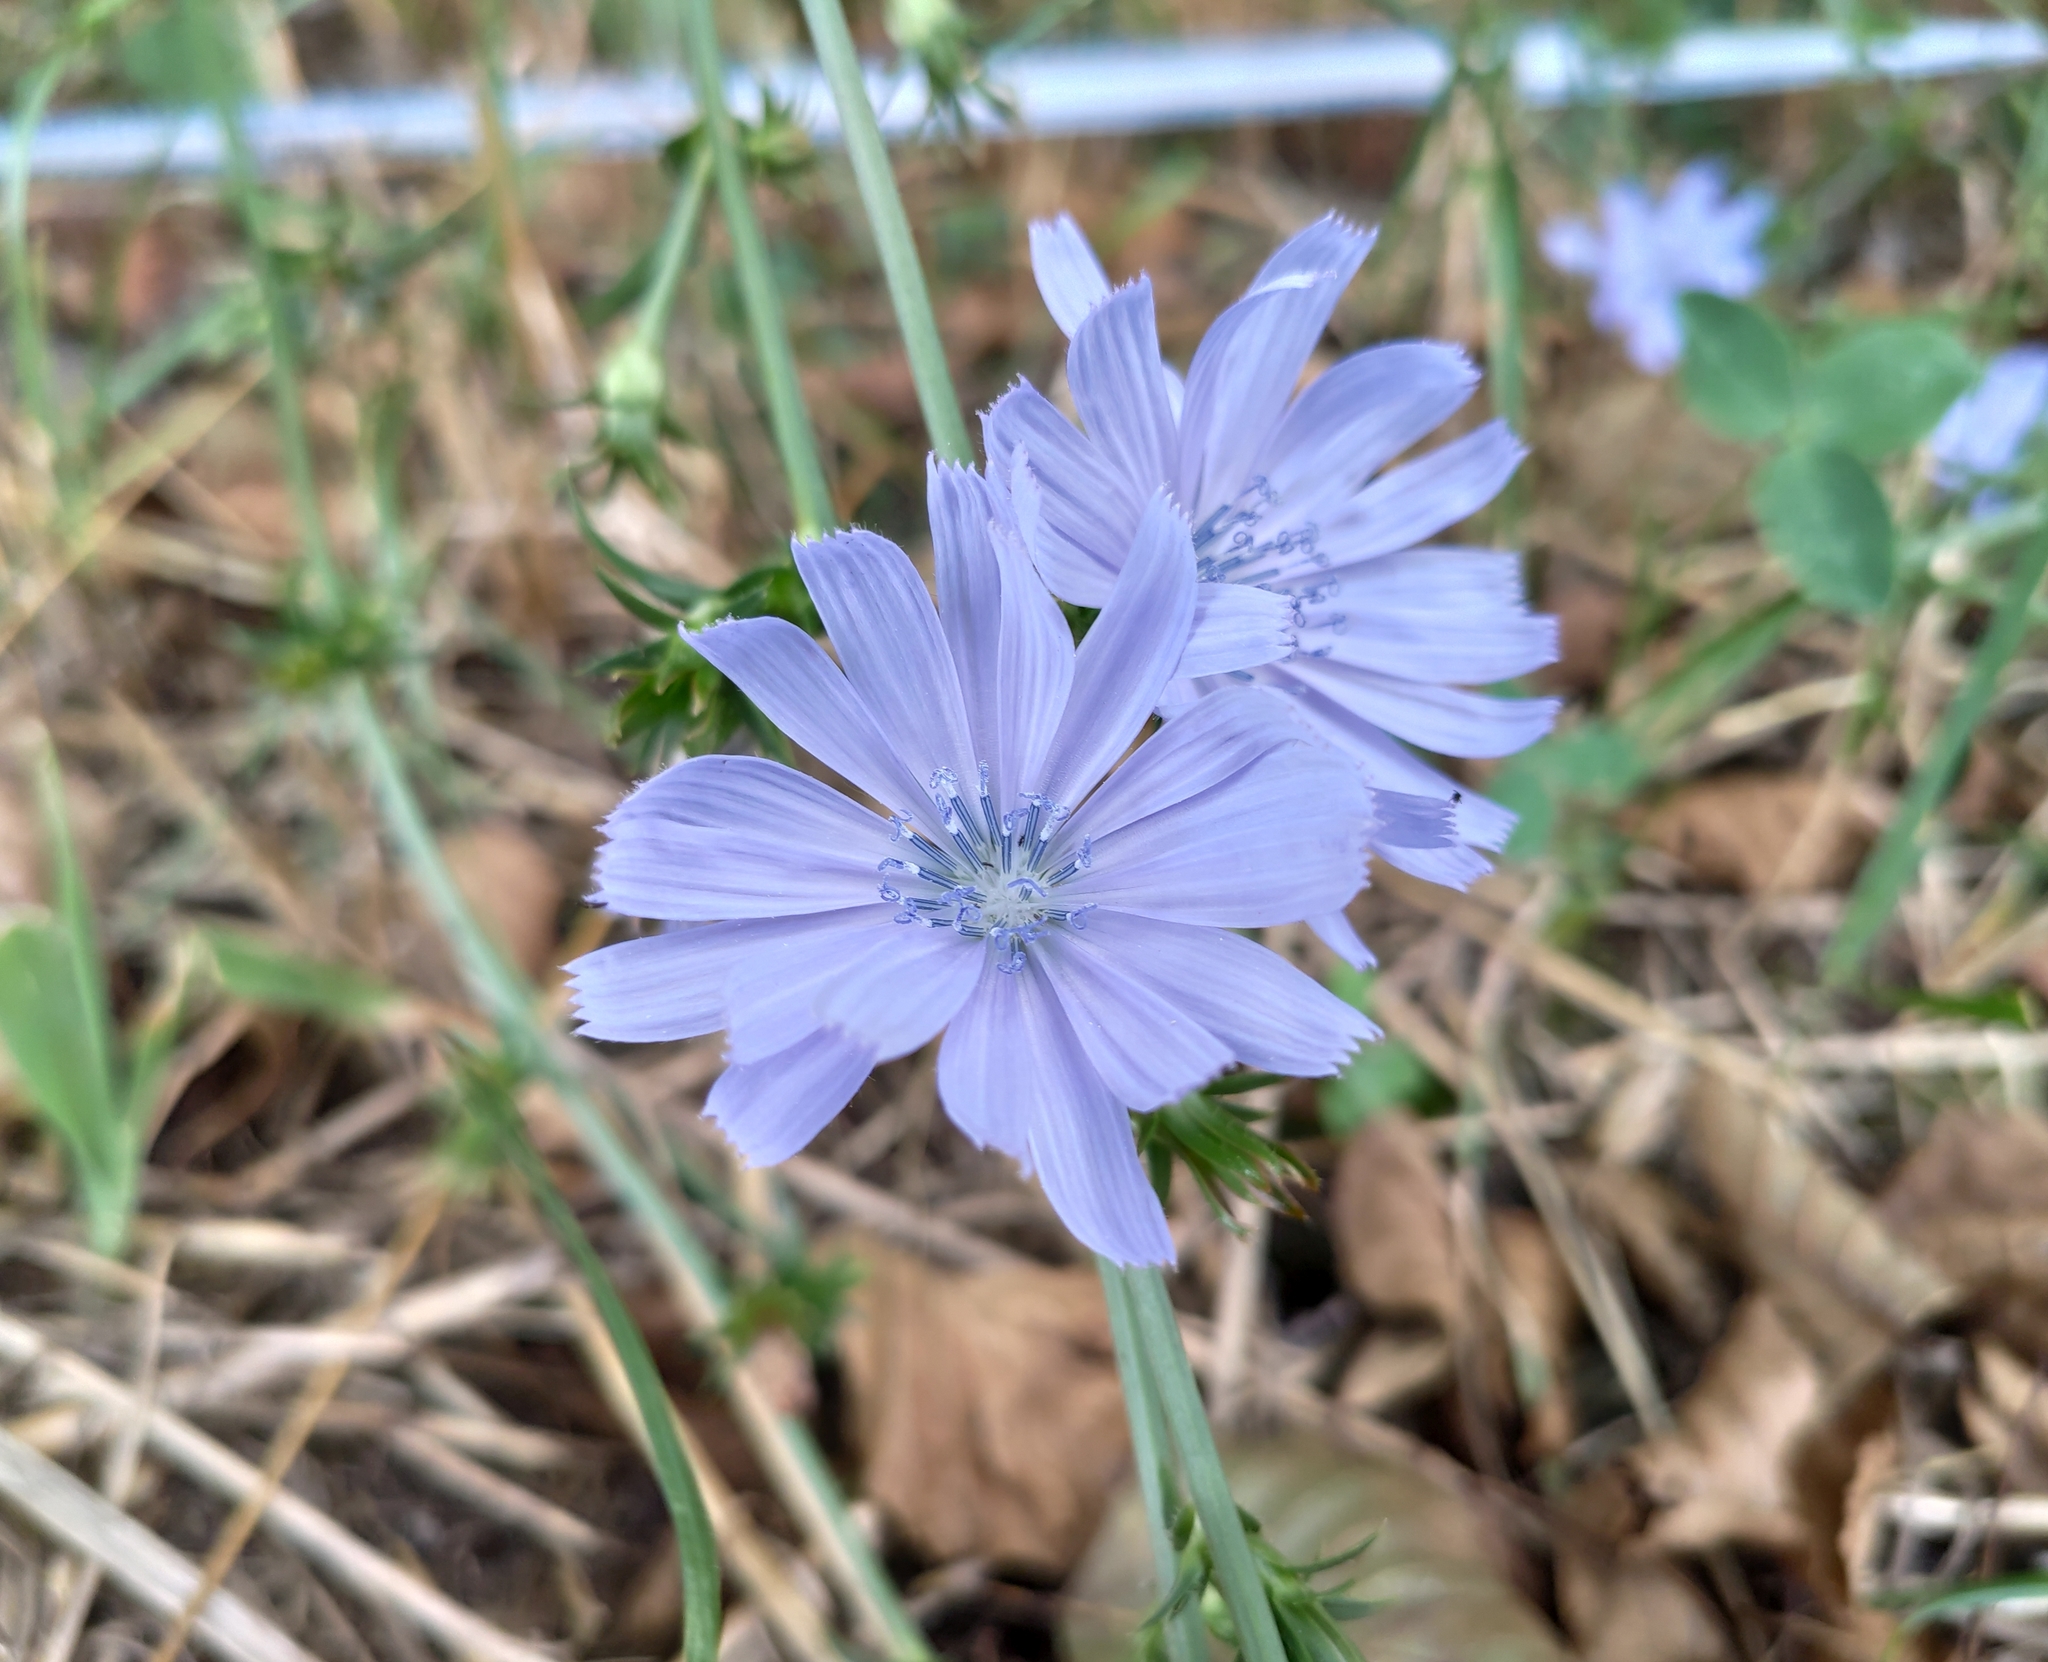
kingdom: Plantae
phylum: Tracheophyta
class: Magnoliopsida
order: Asterales
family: Asteraceae
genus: Cichorium
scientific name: Cichorium intybus
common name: Chicory
